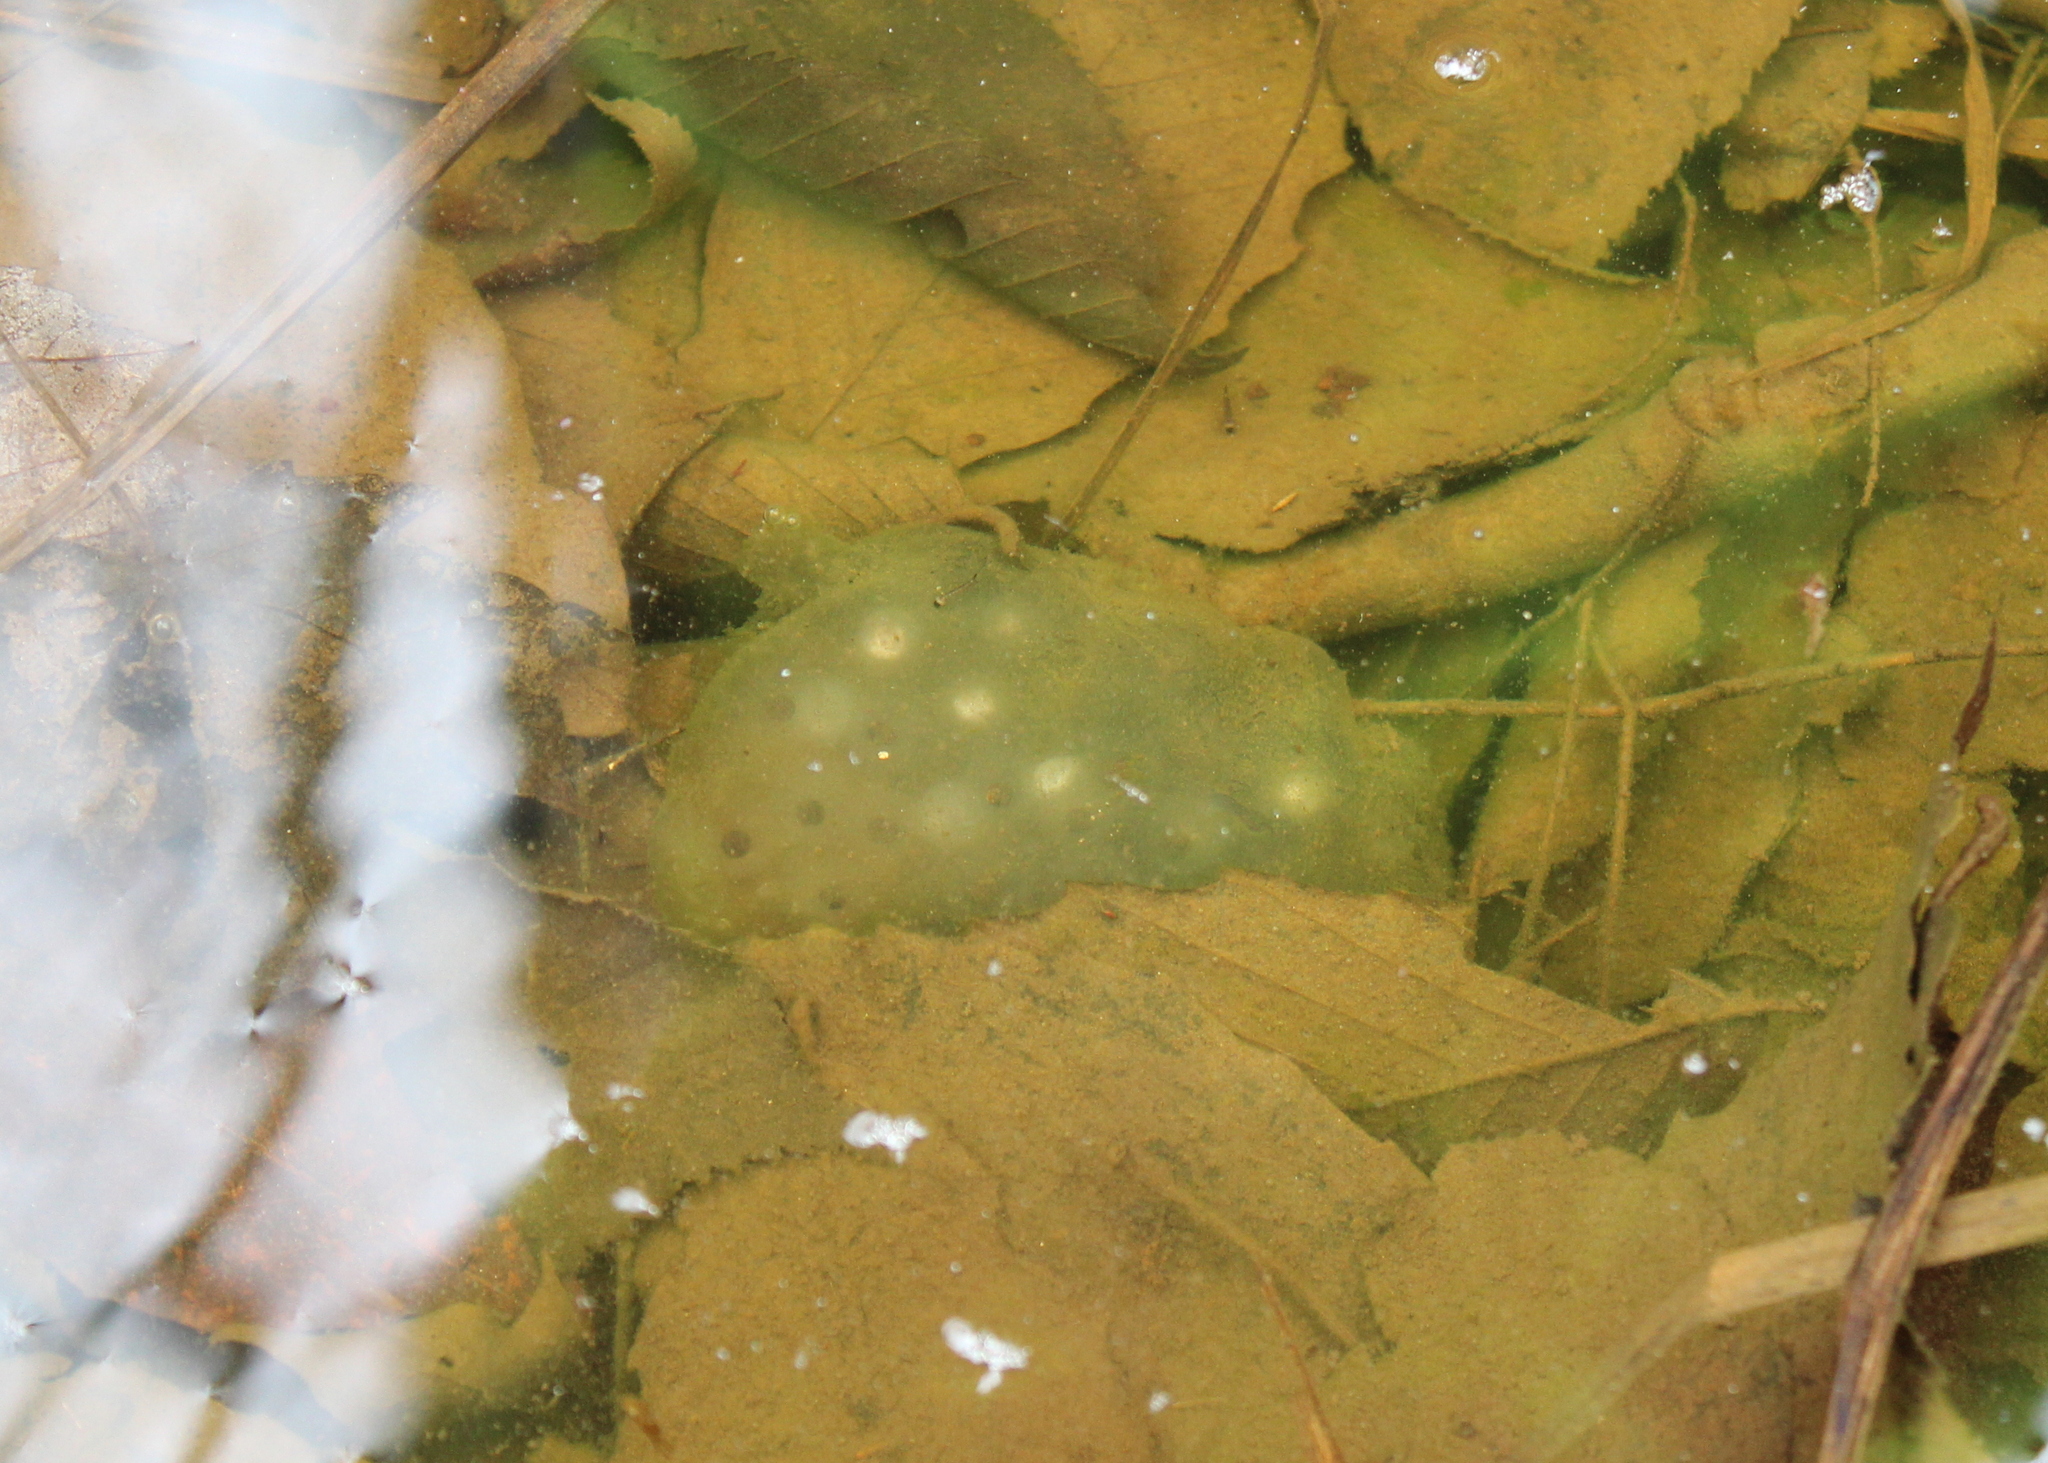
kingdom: Animalia
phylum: Chordata
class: Amphibia
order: Caudata
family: Ambystomatidae
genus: Ambystoma
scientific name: Ambystoma maculatum
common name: Spotted salamander
